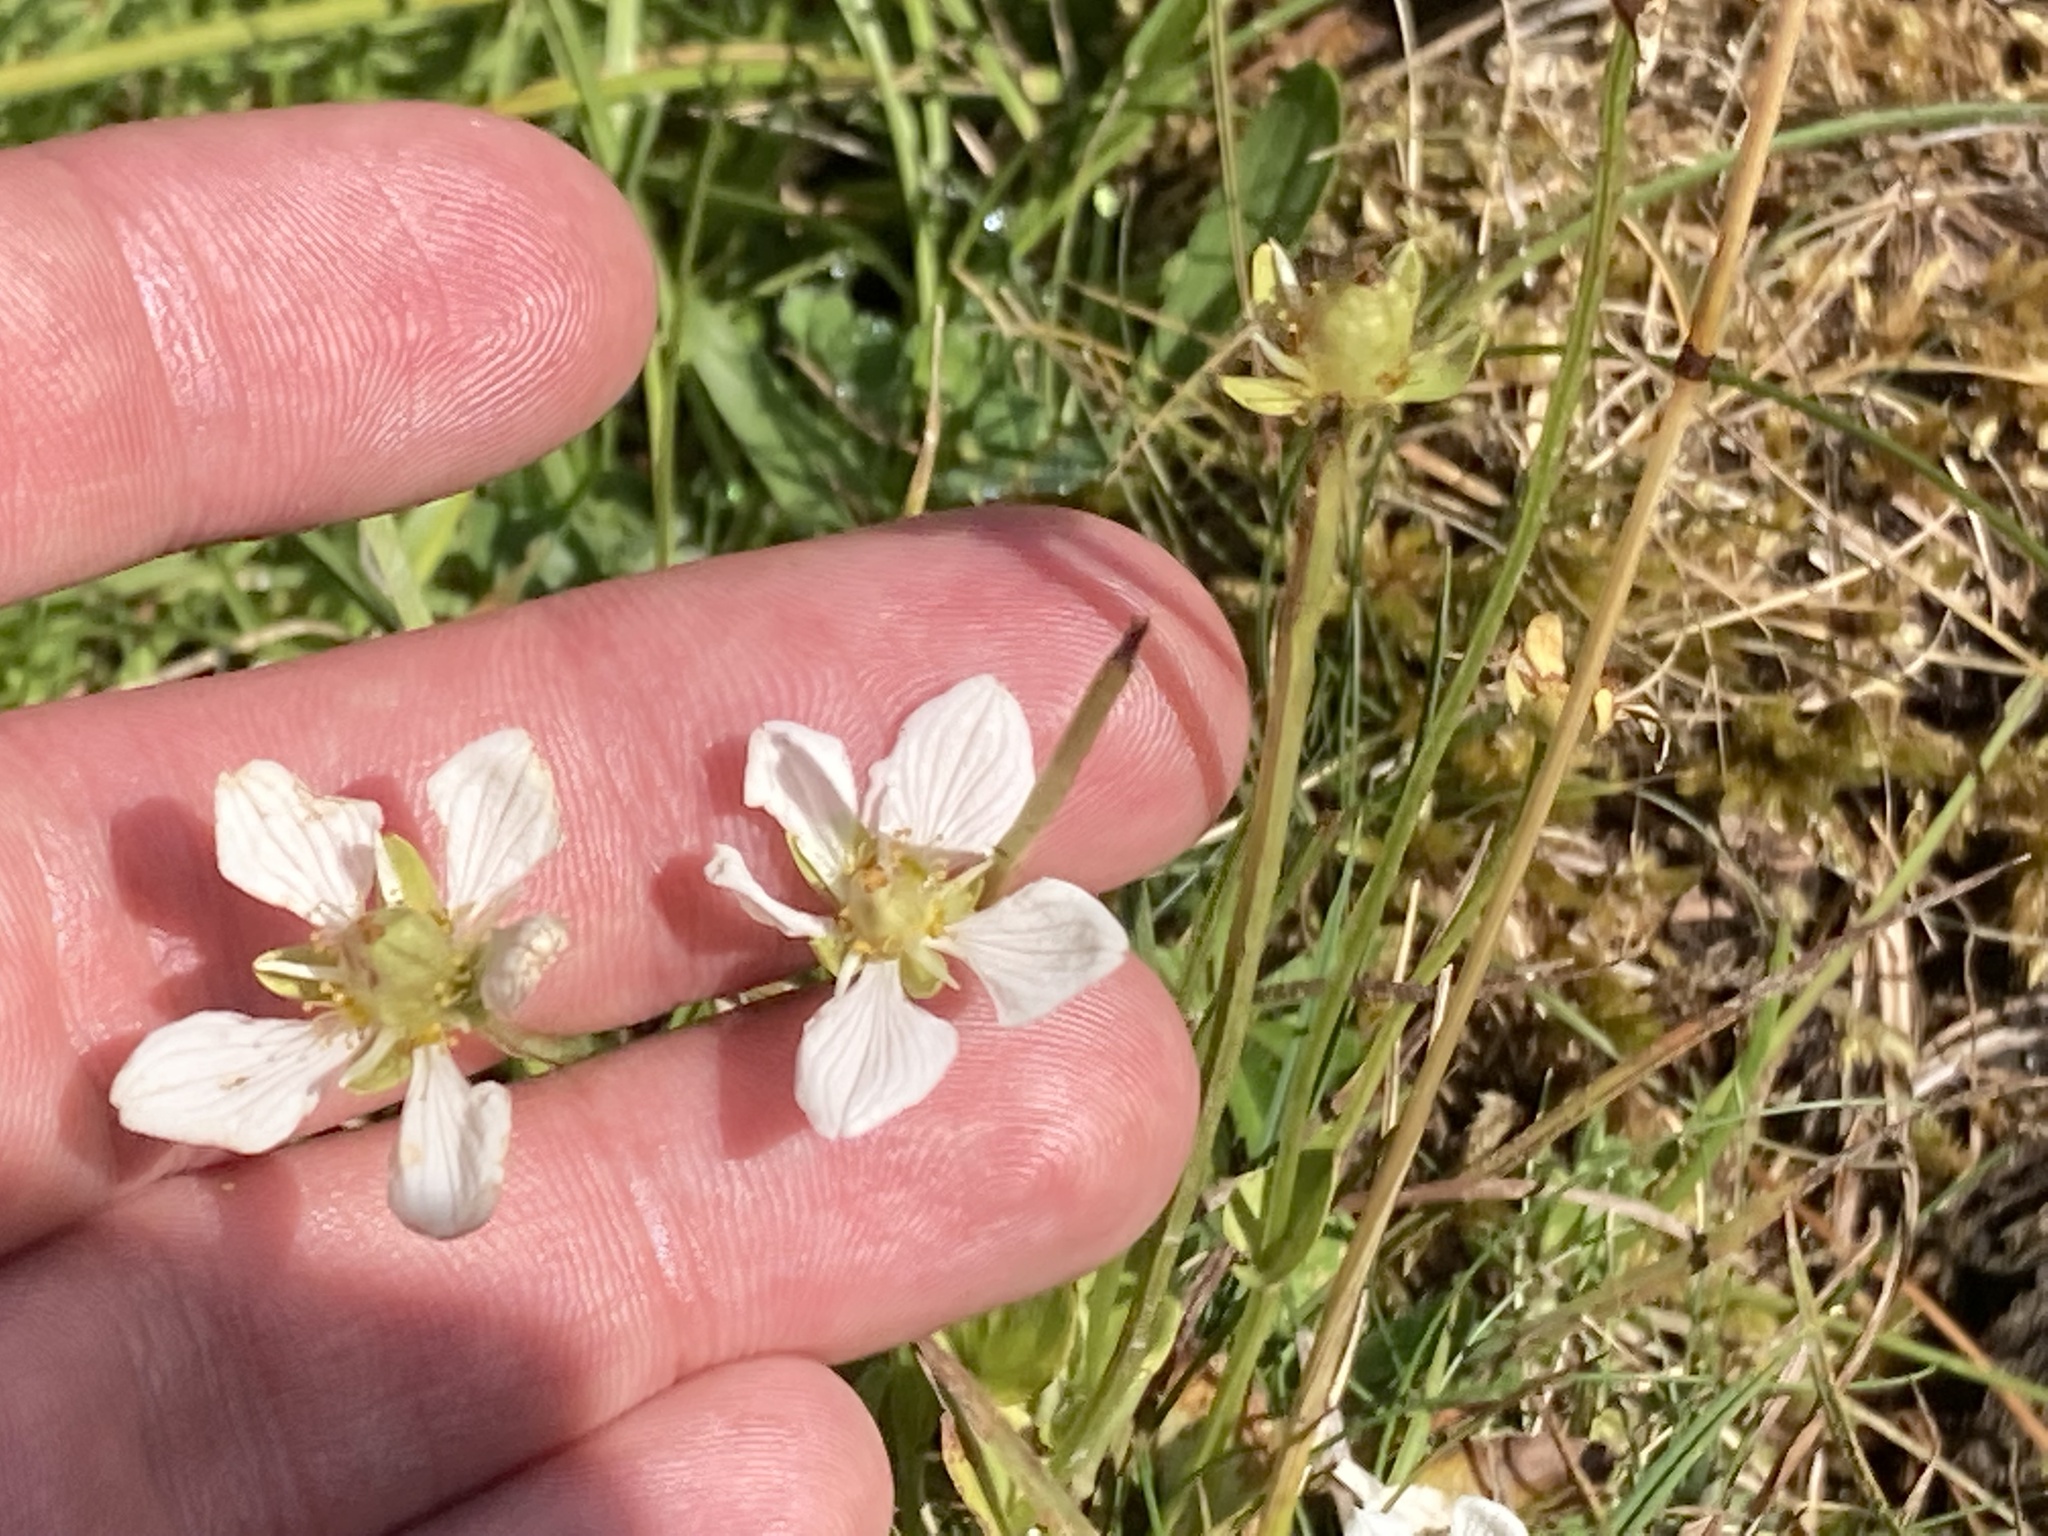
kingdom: Plantae
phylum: Tracheophyta
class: Magnoliopsida
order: Celastrales
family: Parnassiaceae
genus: Parnassia
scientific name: Parnassia palustris
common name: Grass-of-parnassus
